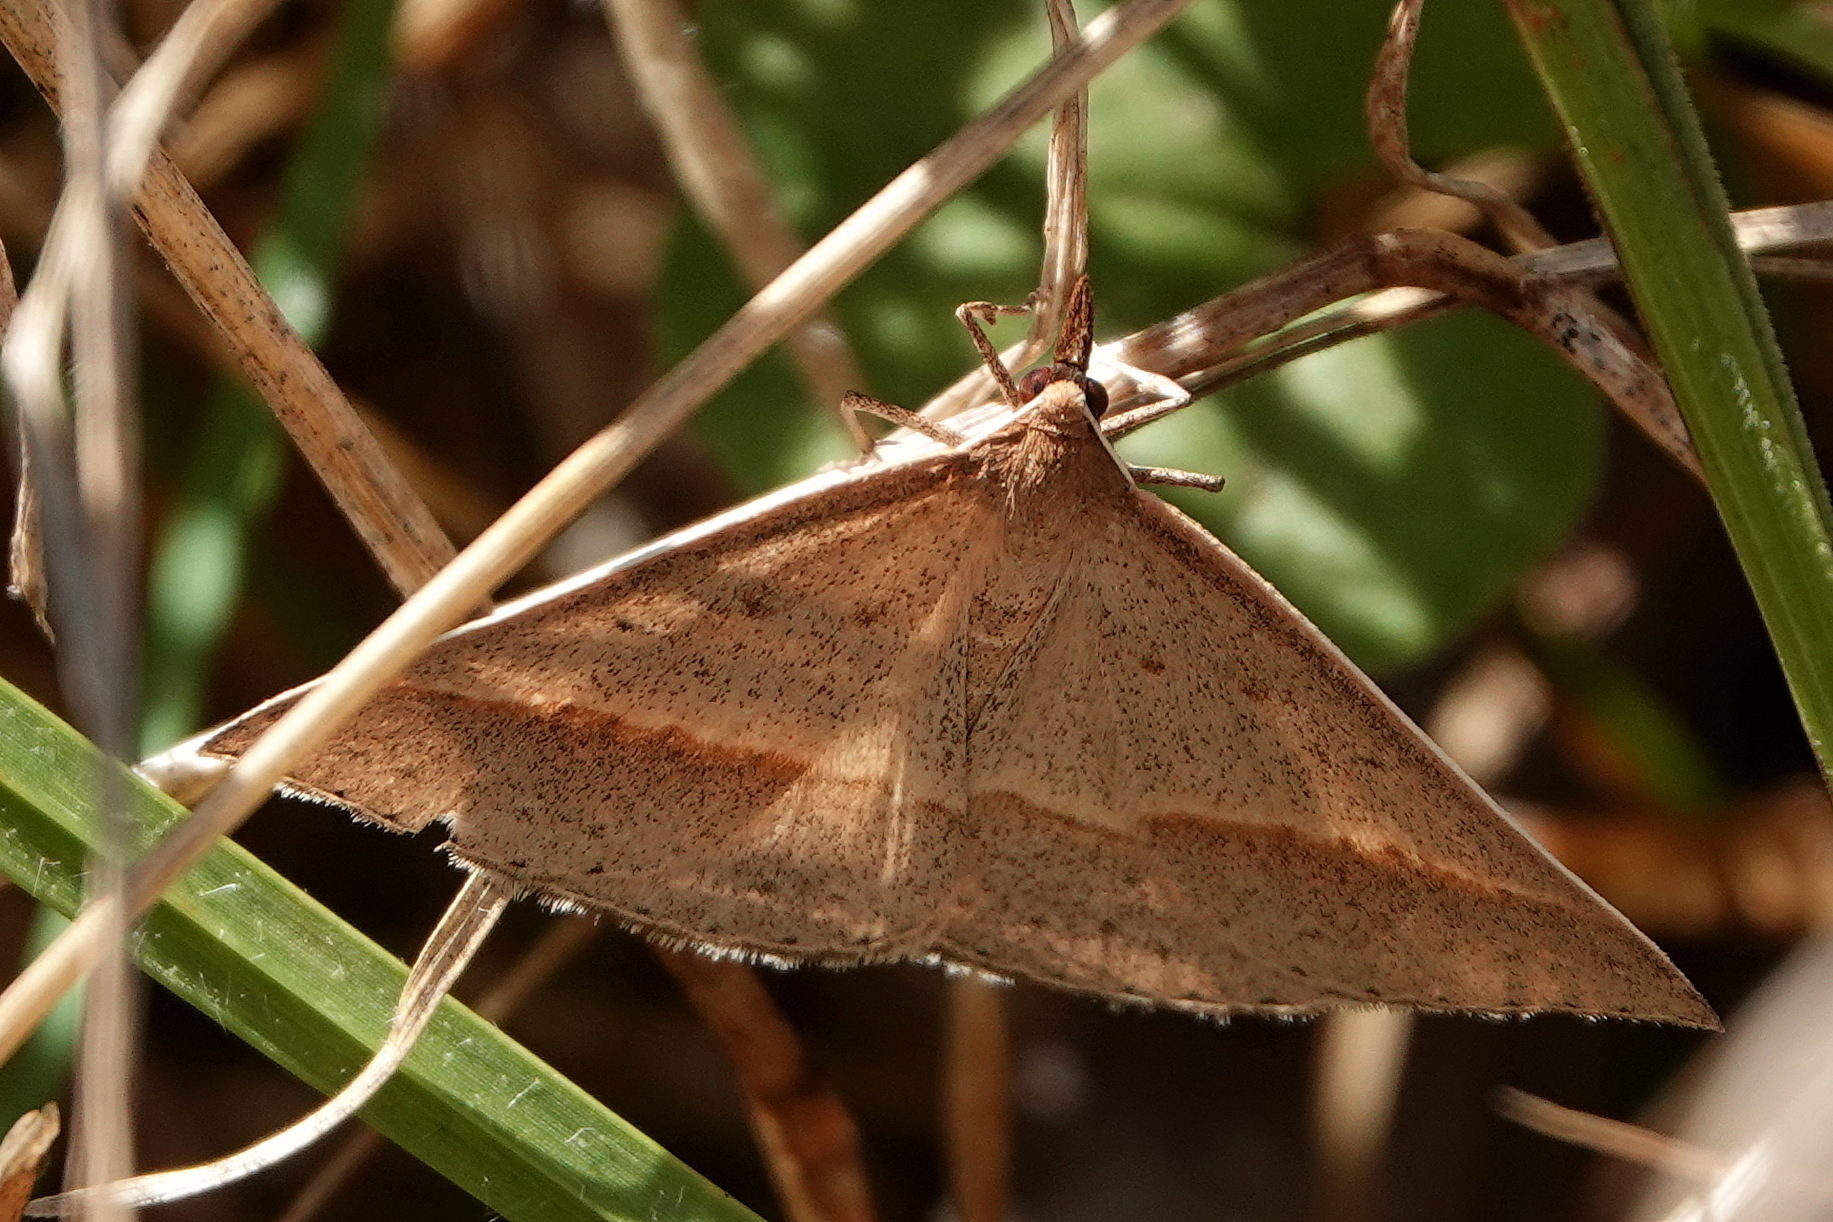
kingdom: Animalia
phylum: Arthropoda
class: Insecta
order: Lepidoptera
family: Geometridae
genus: Epidesmia
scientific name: Epidesmia tryxaria
